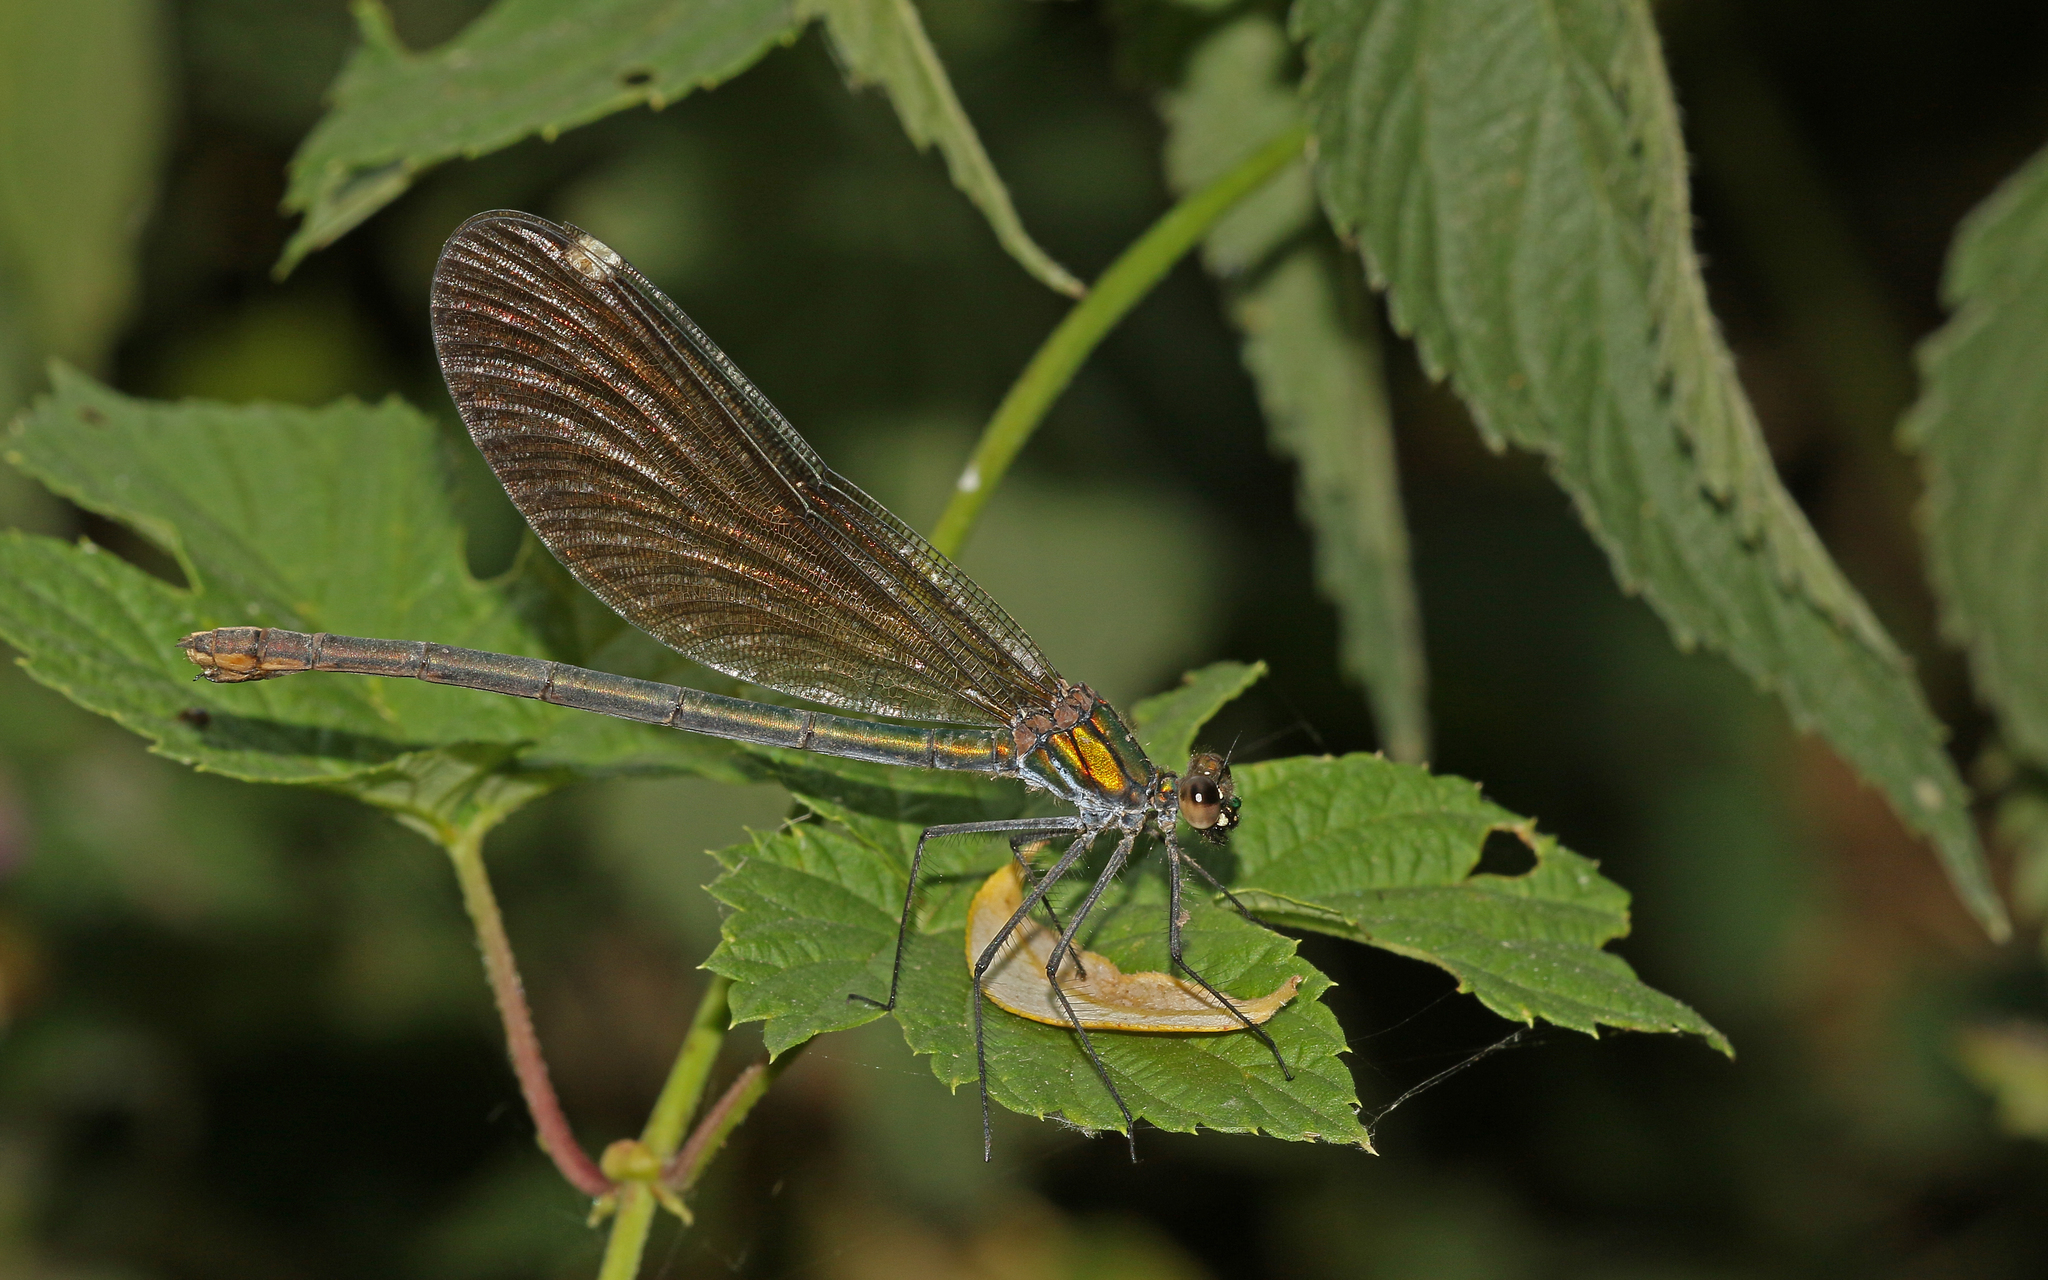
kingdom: Animalia
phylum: Arthropoda
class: Insecta
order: Odonata
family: Calopterygidae
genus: Calopteryx
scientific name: Calopteryx virgo
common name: Beautiful demoiselle
